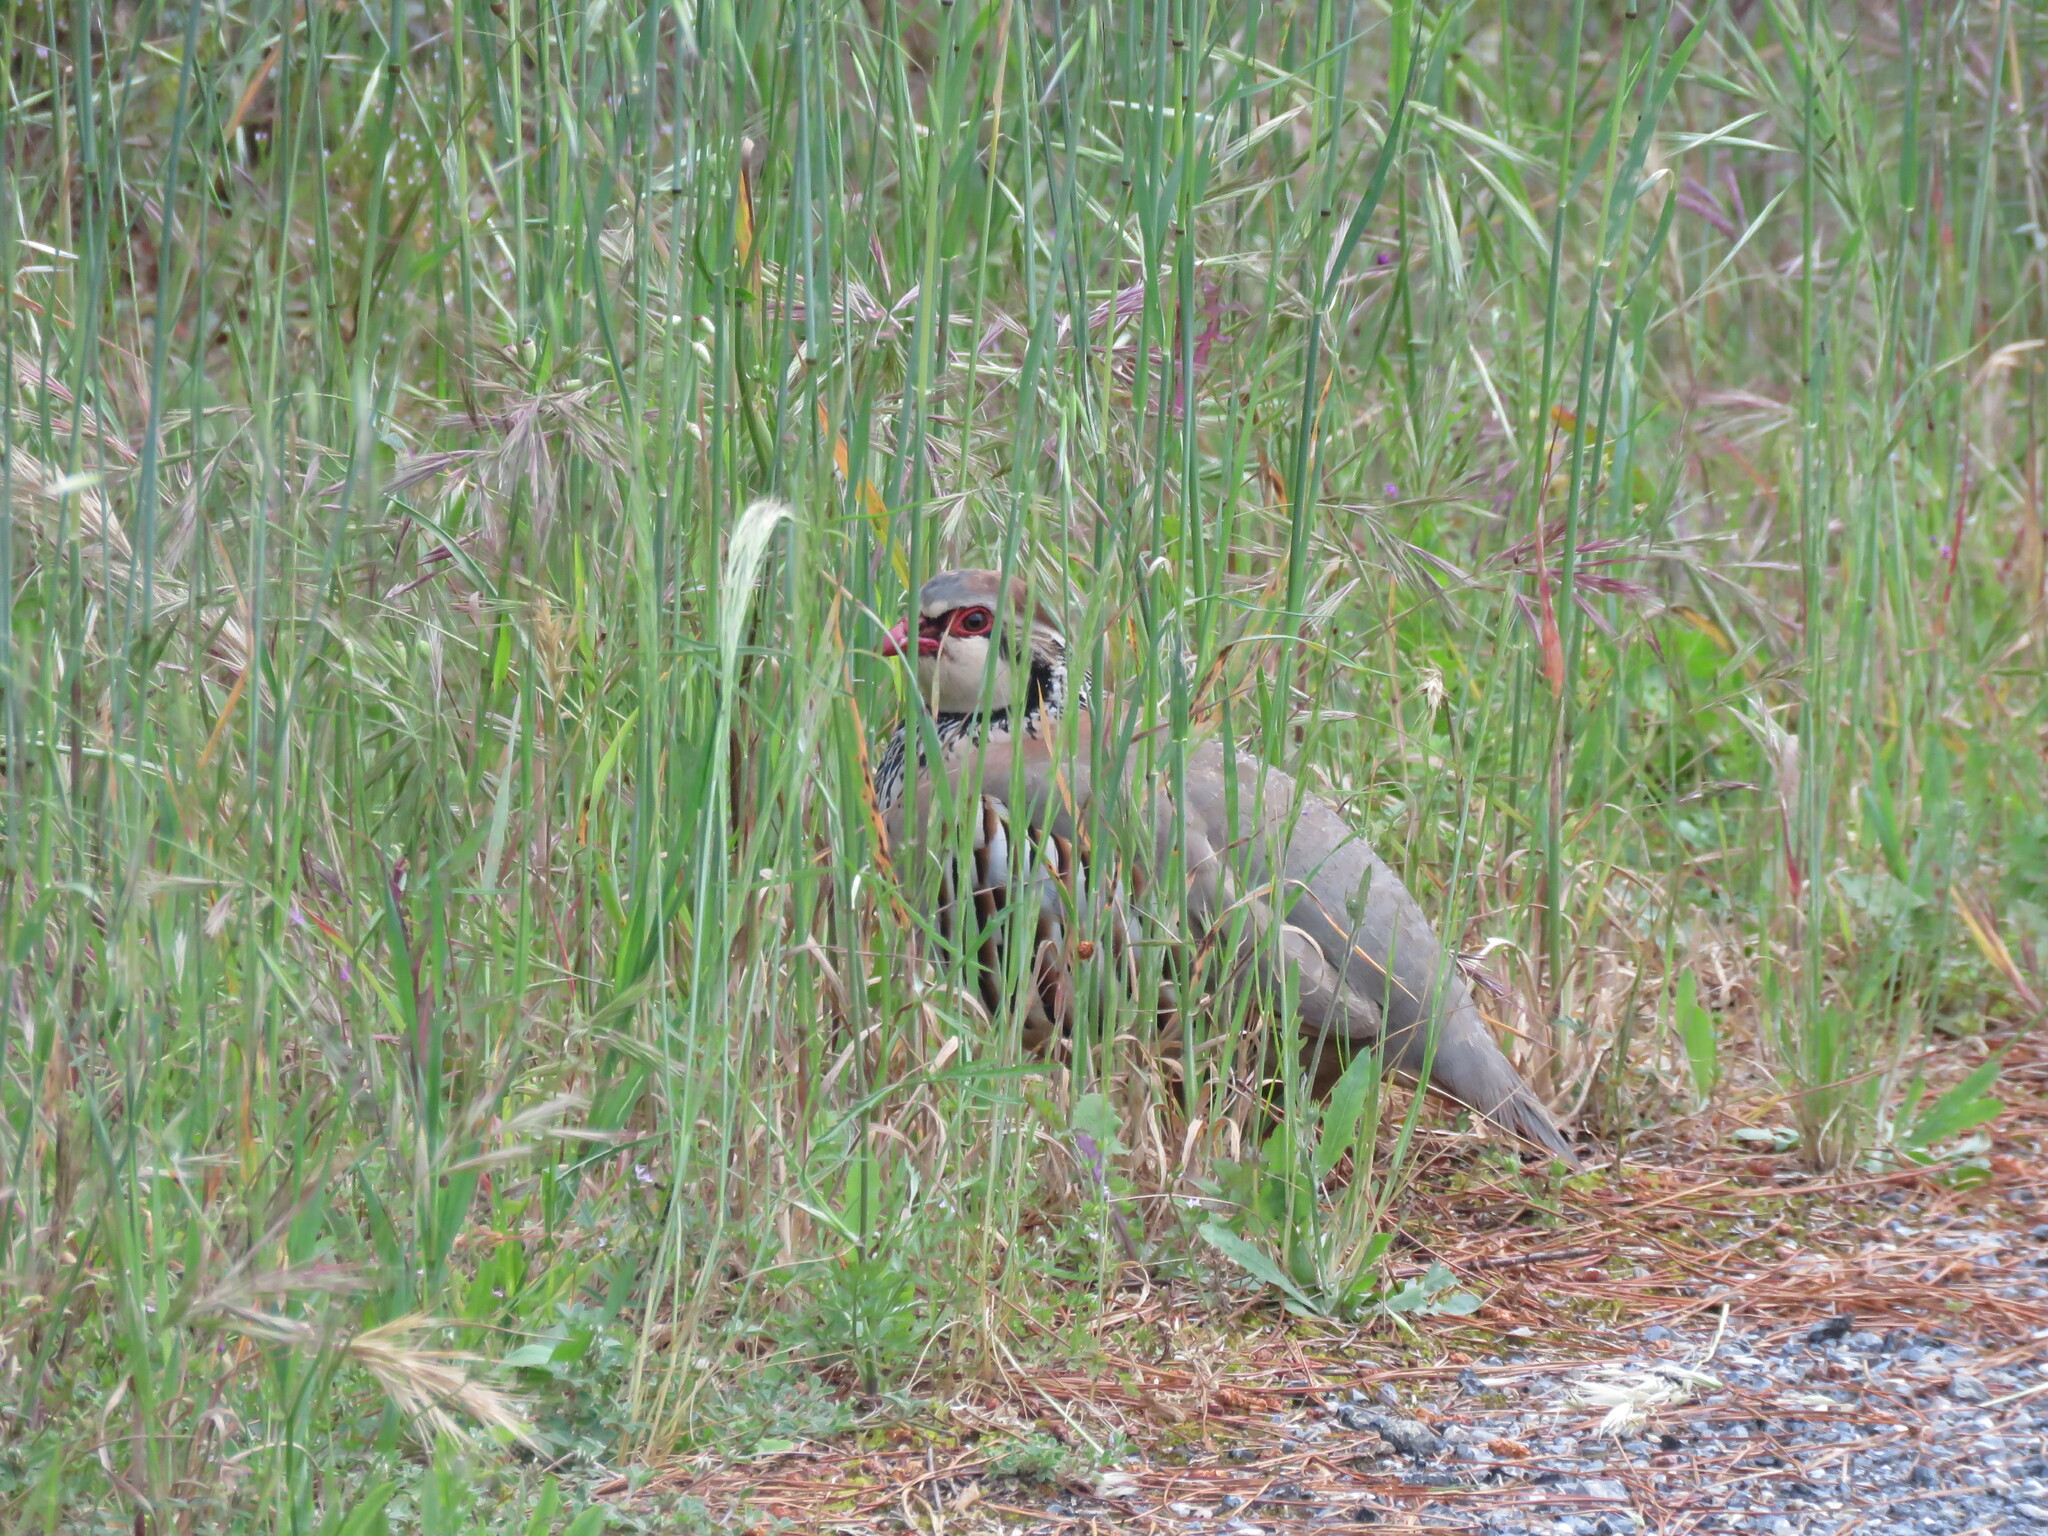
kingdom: Animalia
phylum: Chordata
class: Aves
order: Galliformes
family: Phasianidae
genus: Alectoris
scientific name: Alectoris rufa
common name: Red-legged partridge
